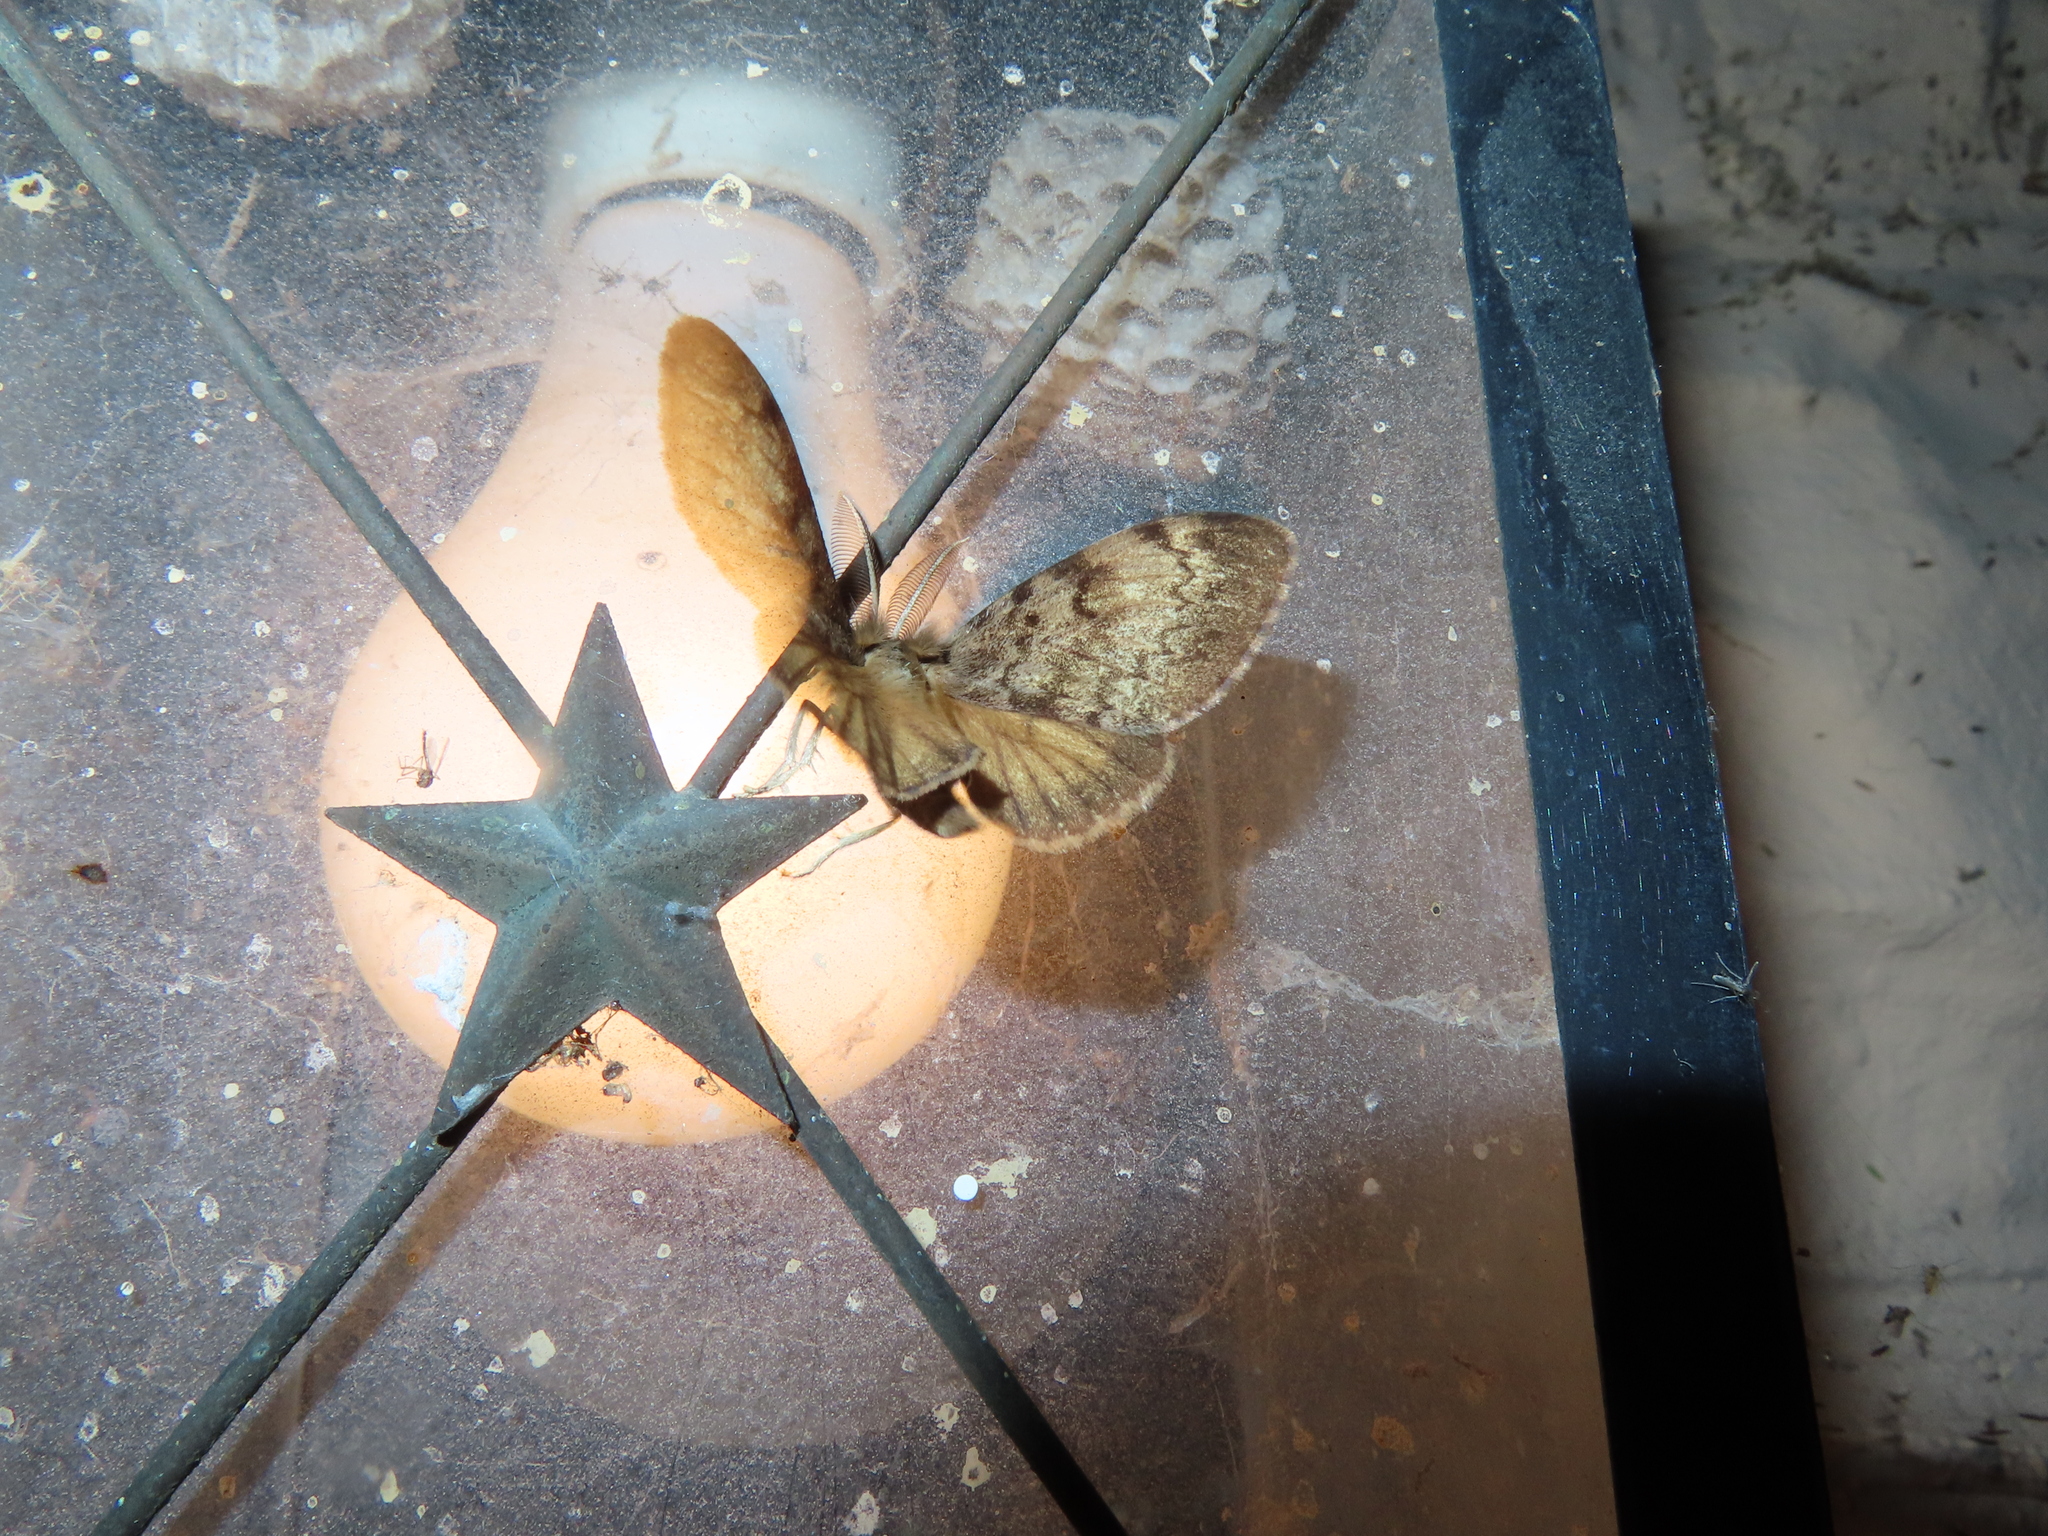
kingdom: Animalia
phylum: Arthropoda
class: Insecta
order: Lepidoptera
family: Erebidae
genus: Lymantria
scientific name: Lymantria dispar
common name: Gypsy moth
